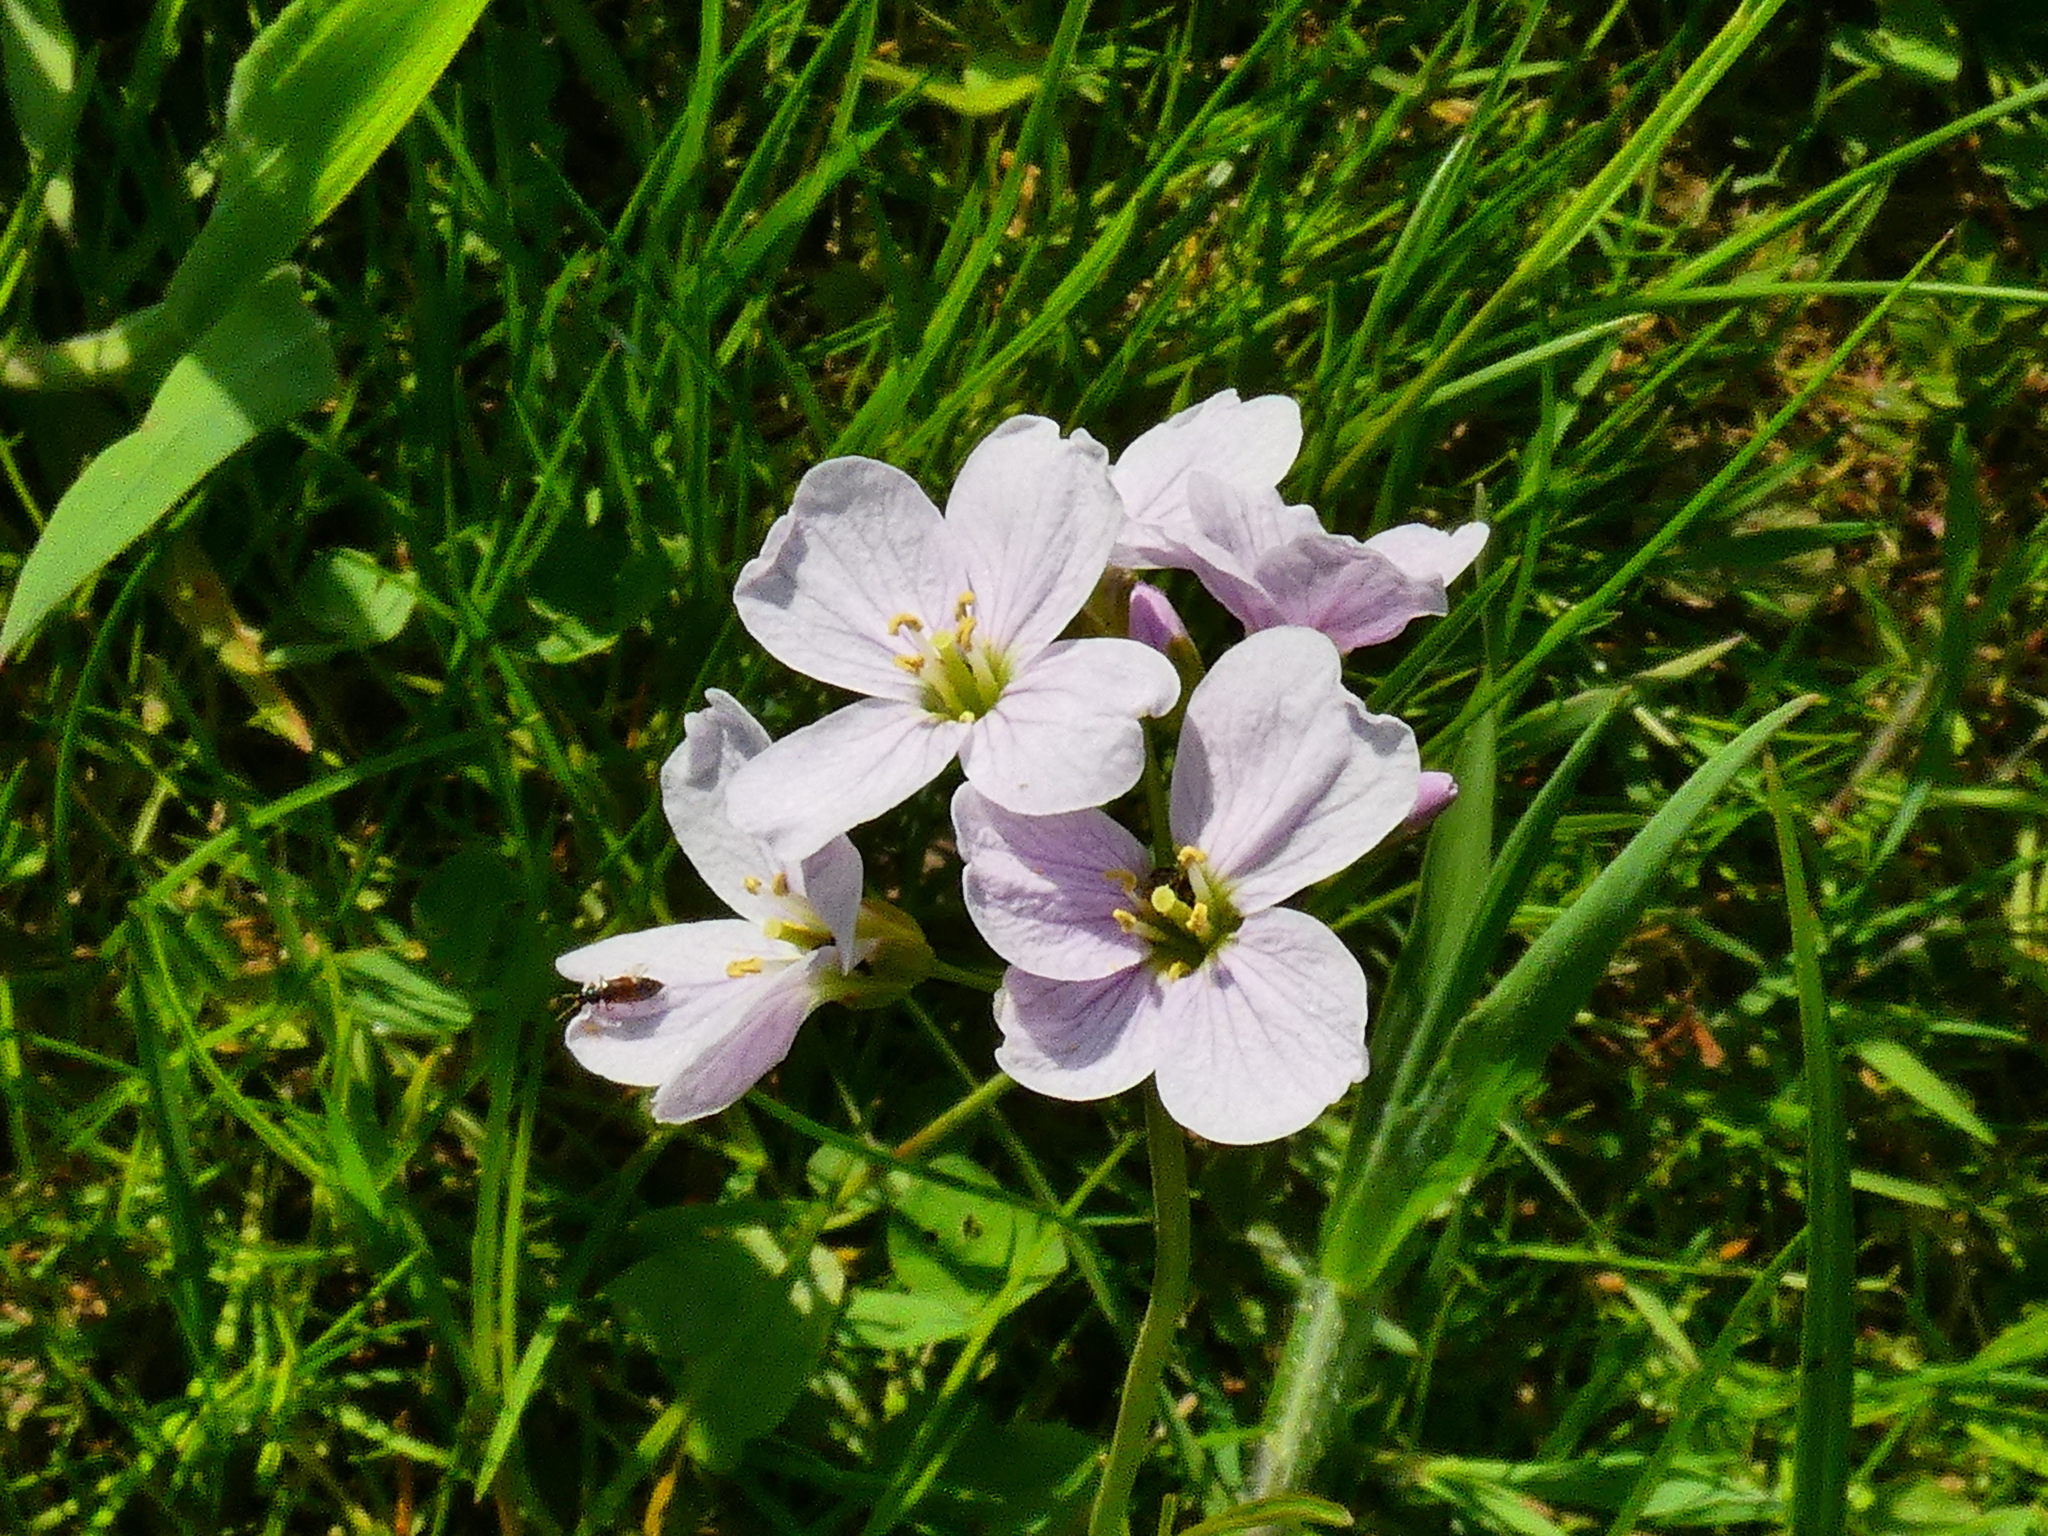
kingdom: Plantae
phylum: Tracheophyta
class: Magnoliopsida
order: Brassicales
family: Brassicaceae
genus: Cardamine
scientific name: Cardamine pratensis
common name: Cuckoo flower
